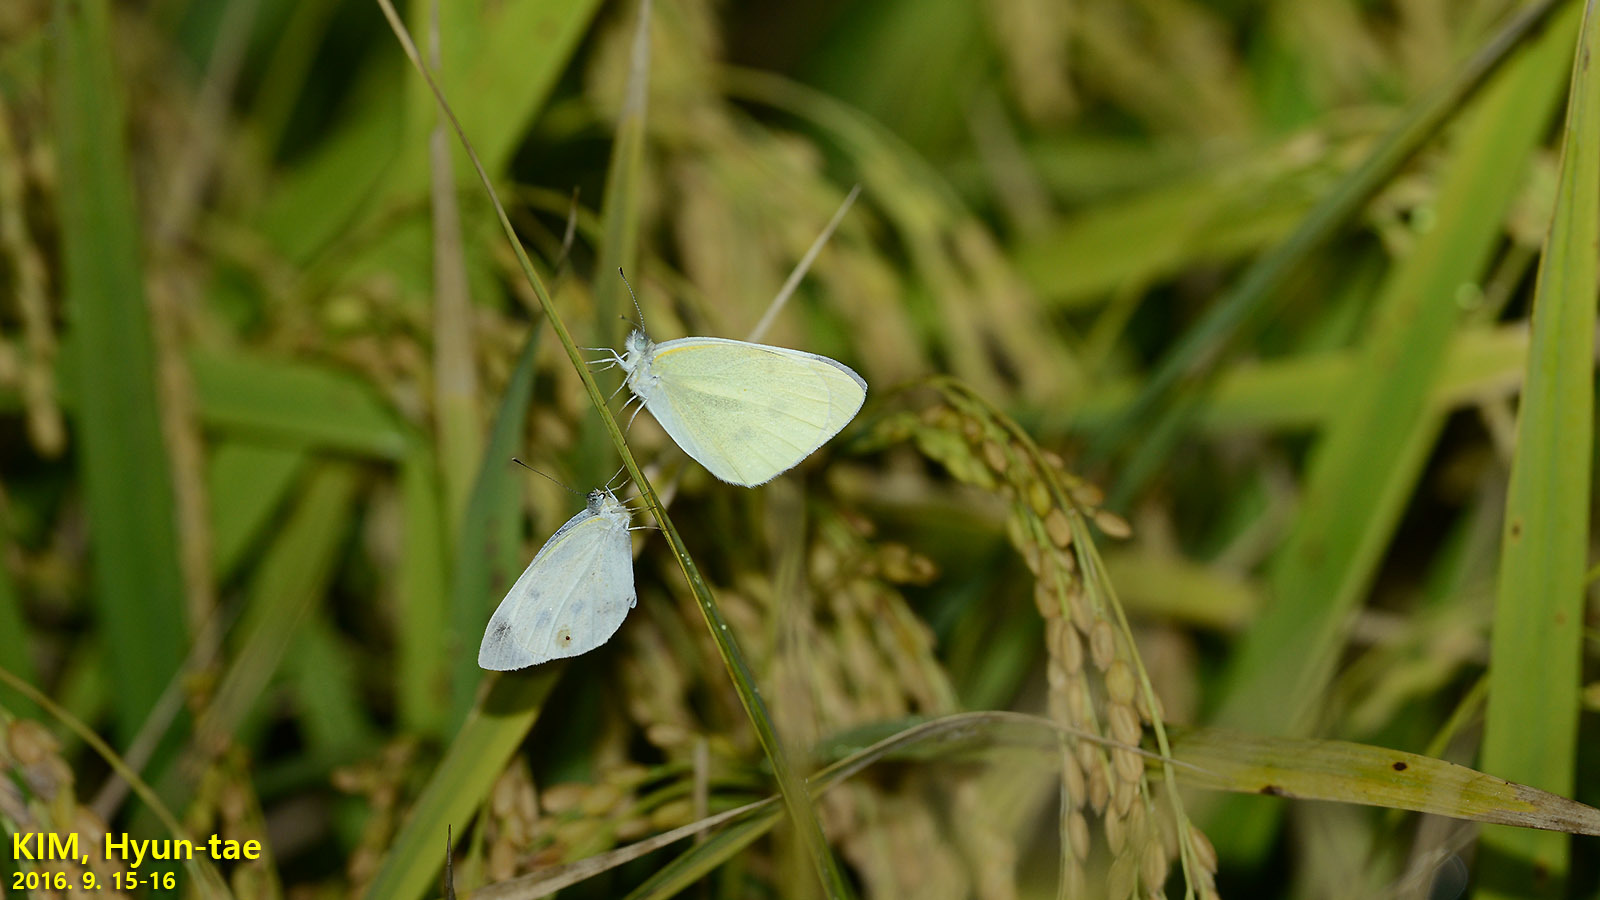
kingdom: Animalia
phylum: Arthropoda
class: Insecta
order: Lepidoptera
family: Pieridae
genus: Pieris
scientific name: Pieris rapae
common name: Small white
